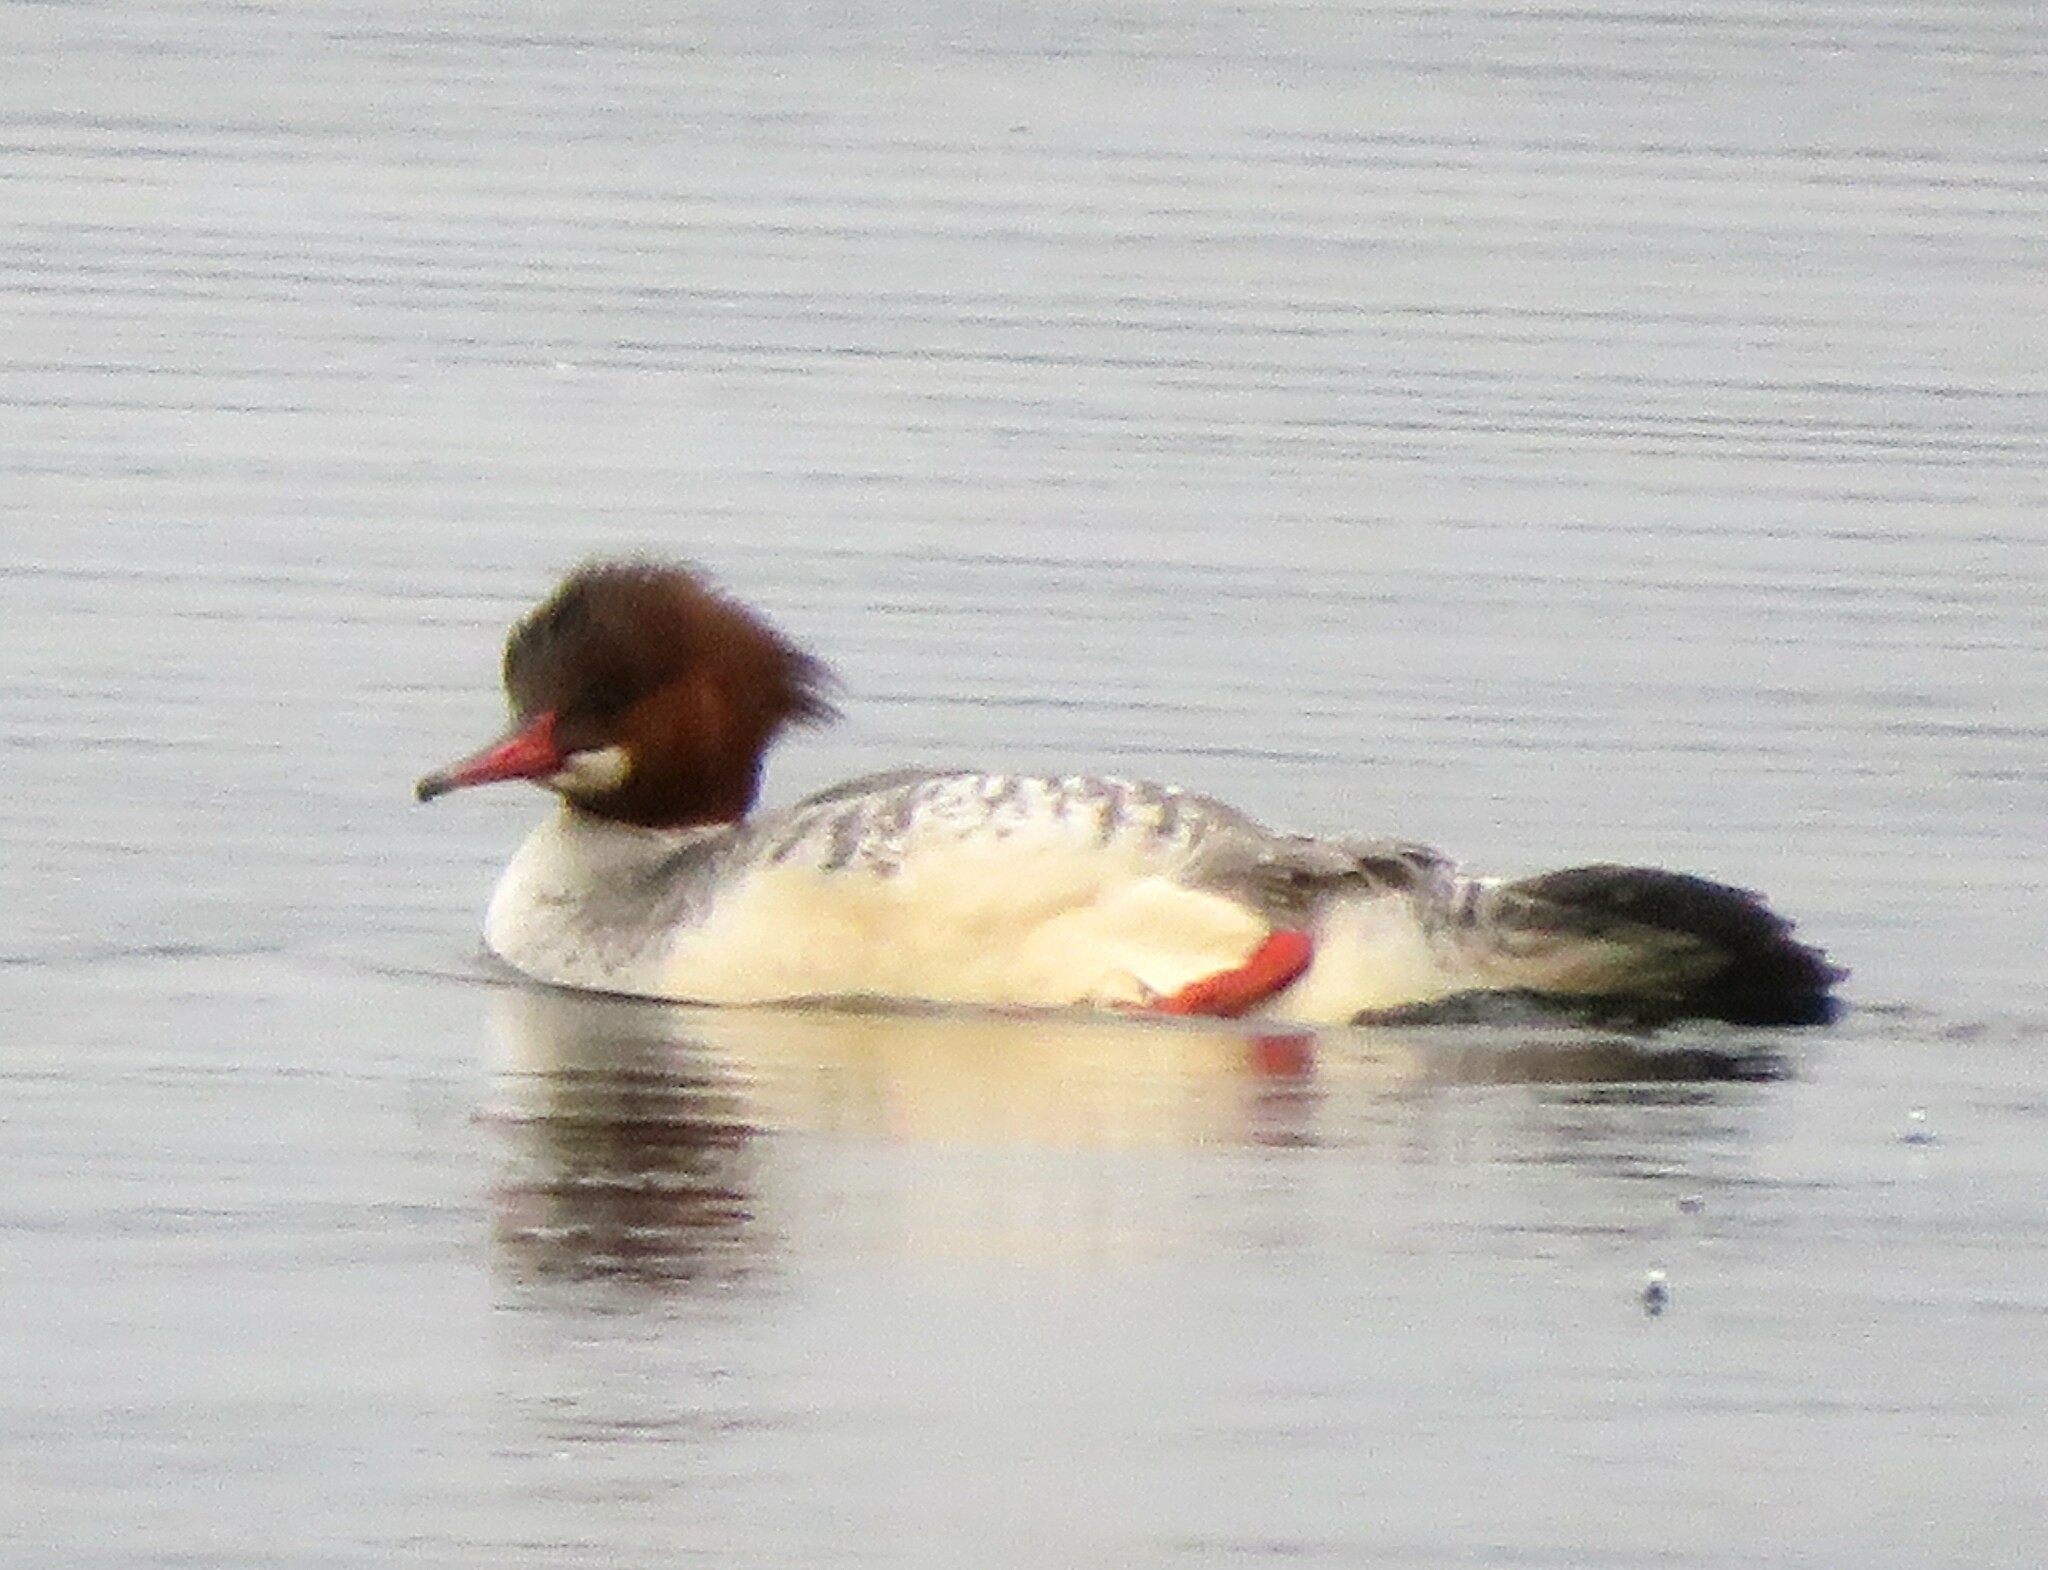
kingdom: Animalia
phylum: Chordata
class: Aves
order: Anseriformes
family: Anatidae
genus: Mergus
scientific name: Mergus merganser
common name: Common merganser
